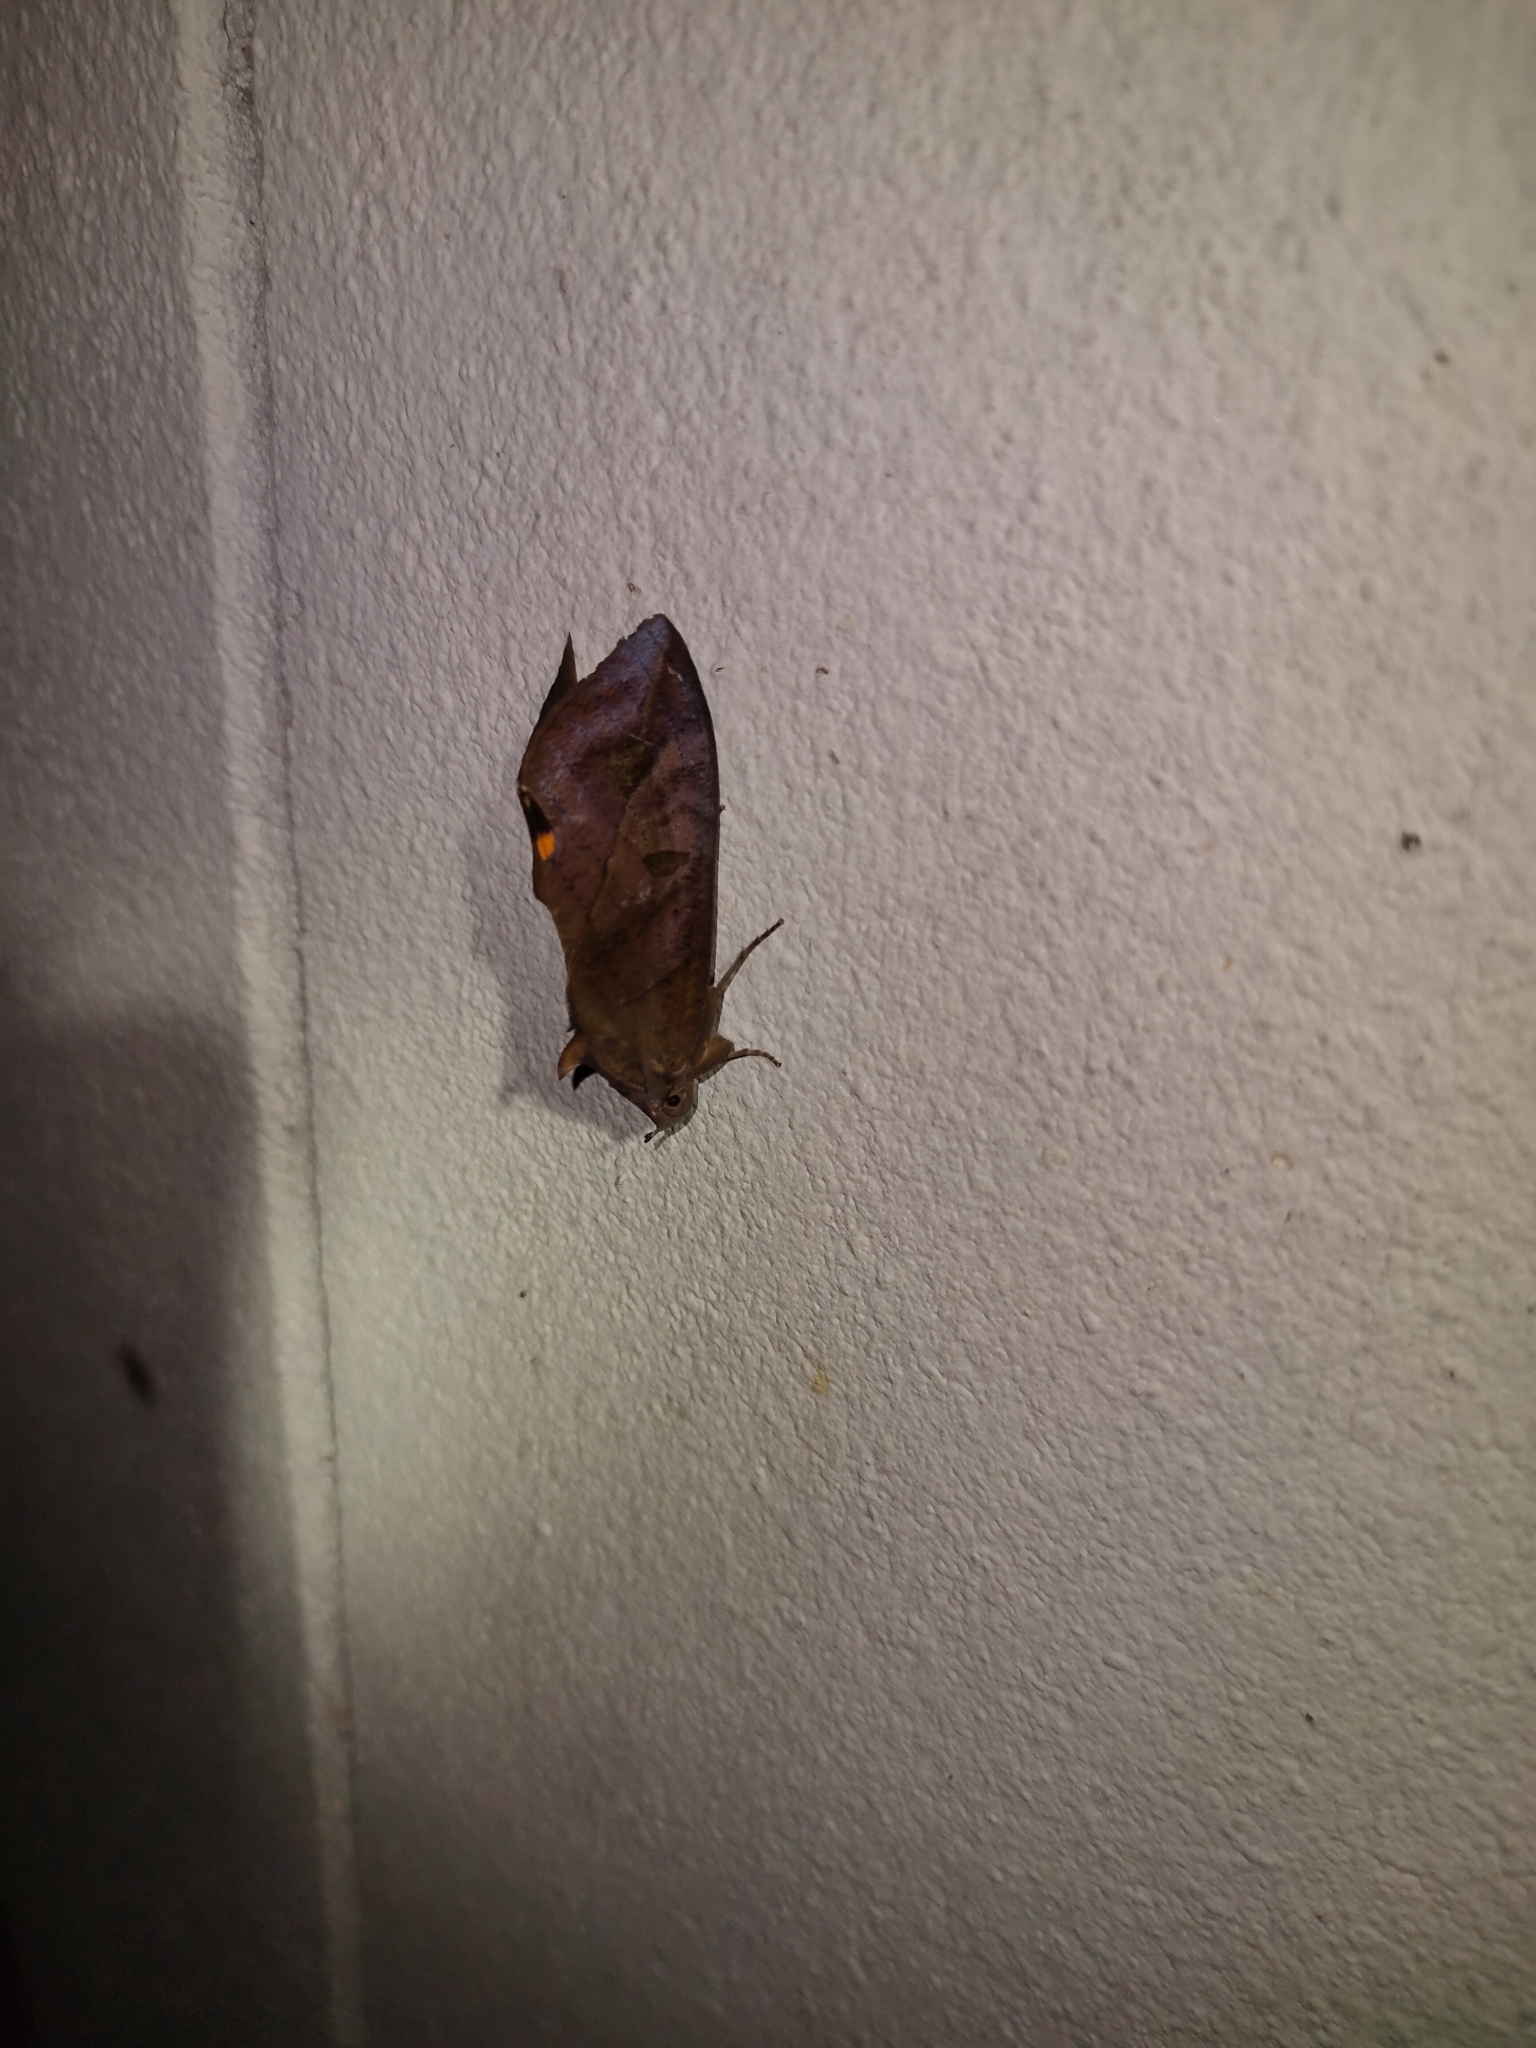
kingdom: Animalia
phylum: Arthropoda
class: Insecta
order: Lepidoptera
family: Erebidae
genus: Eudocima
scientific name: Eudocima phalonia
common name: Wasp
